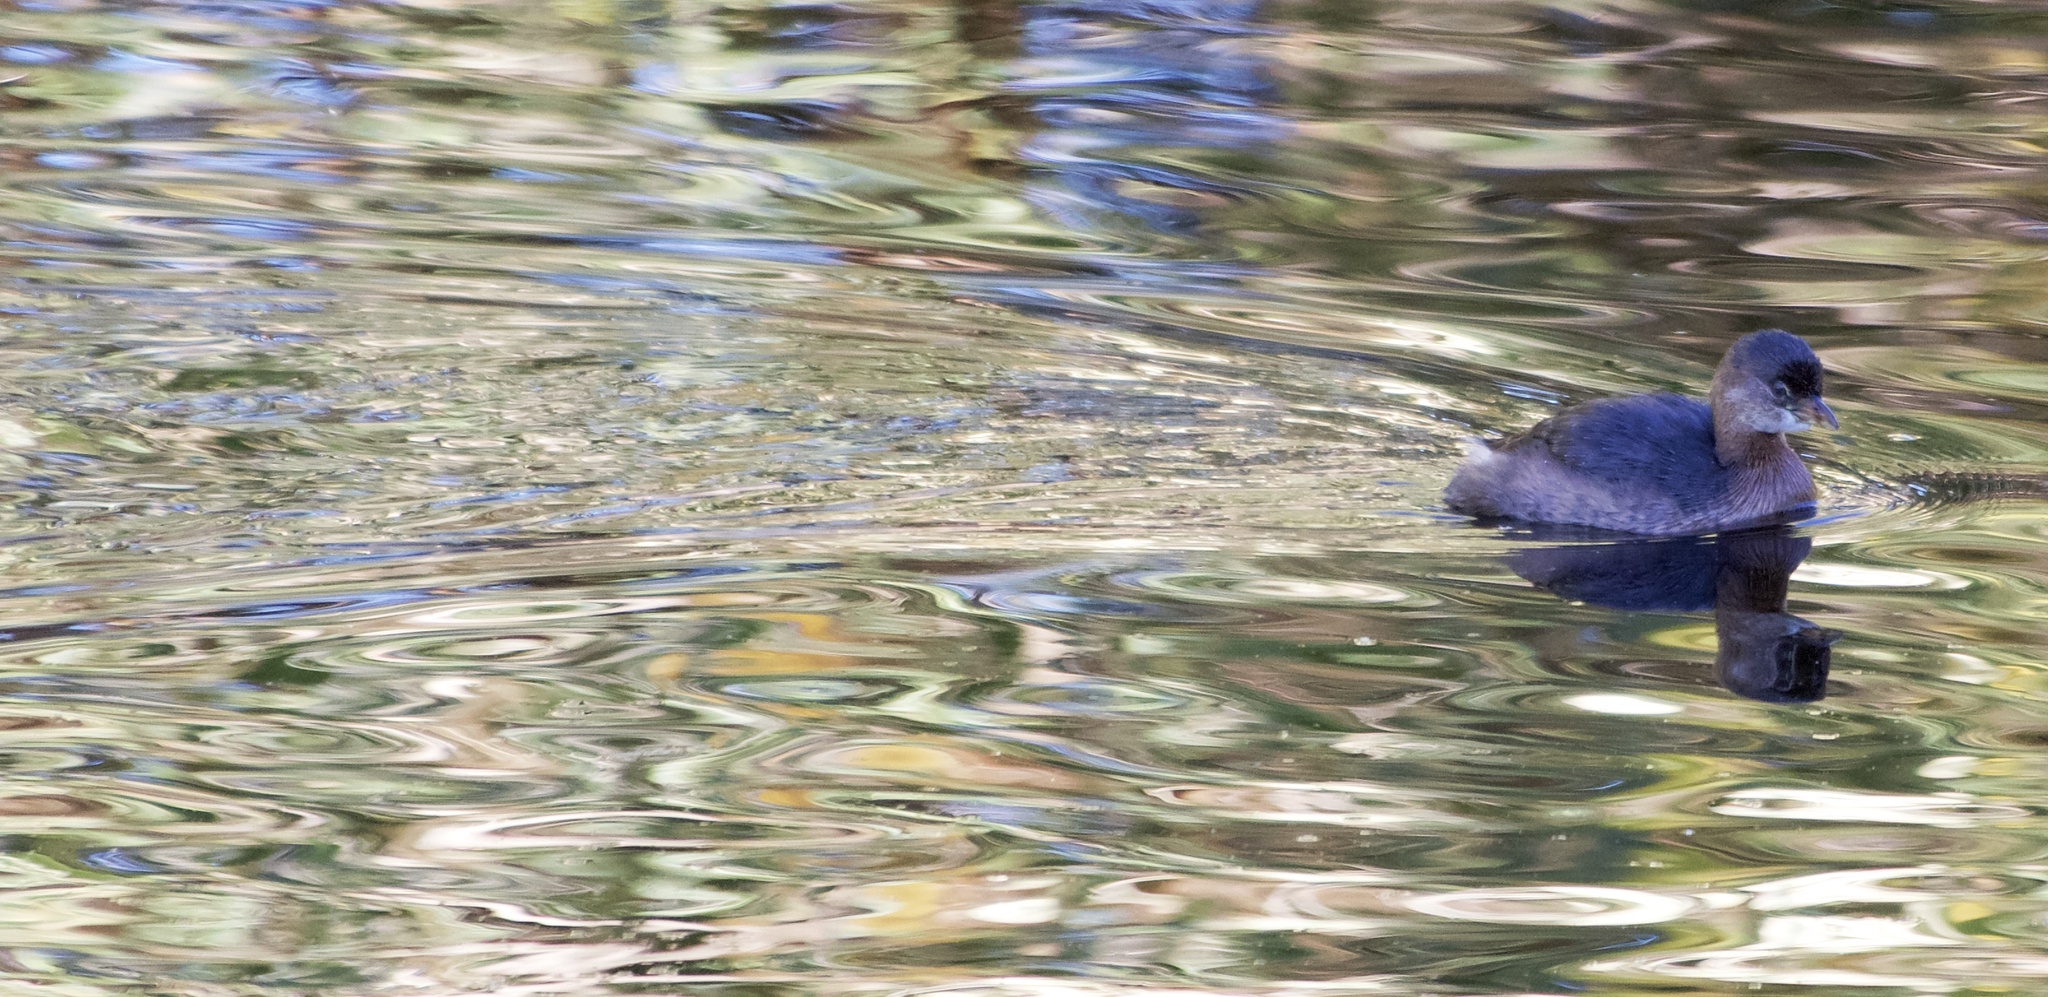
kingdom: Animalia
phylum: Chordata
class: Aves
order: Podicipediformes
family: Podicipedidae
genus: Podilymbus
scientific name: Podilymbus podiceps
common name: Pied-billed grebe
